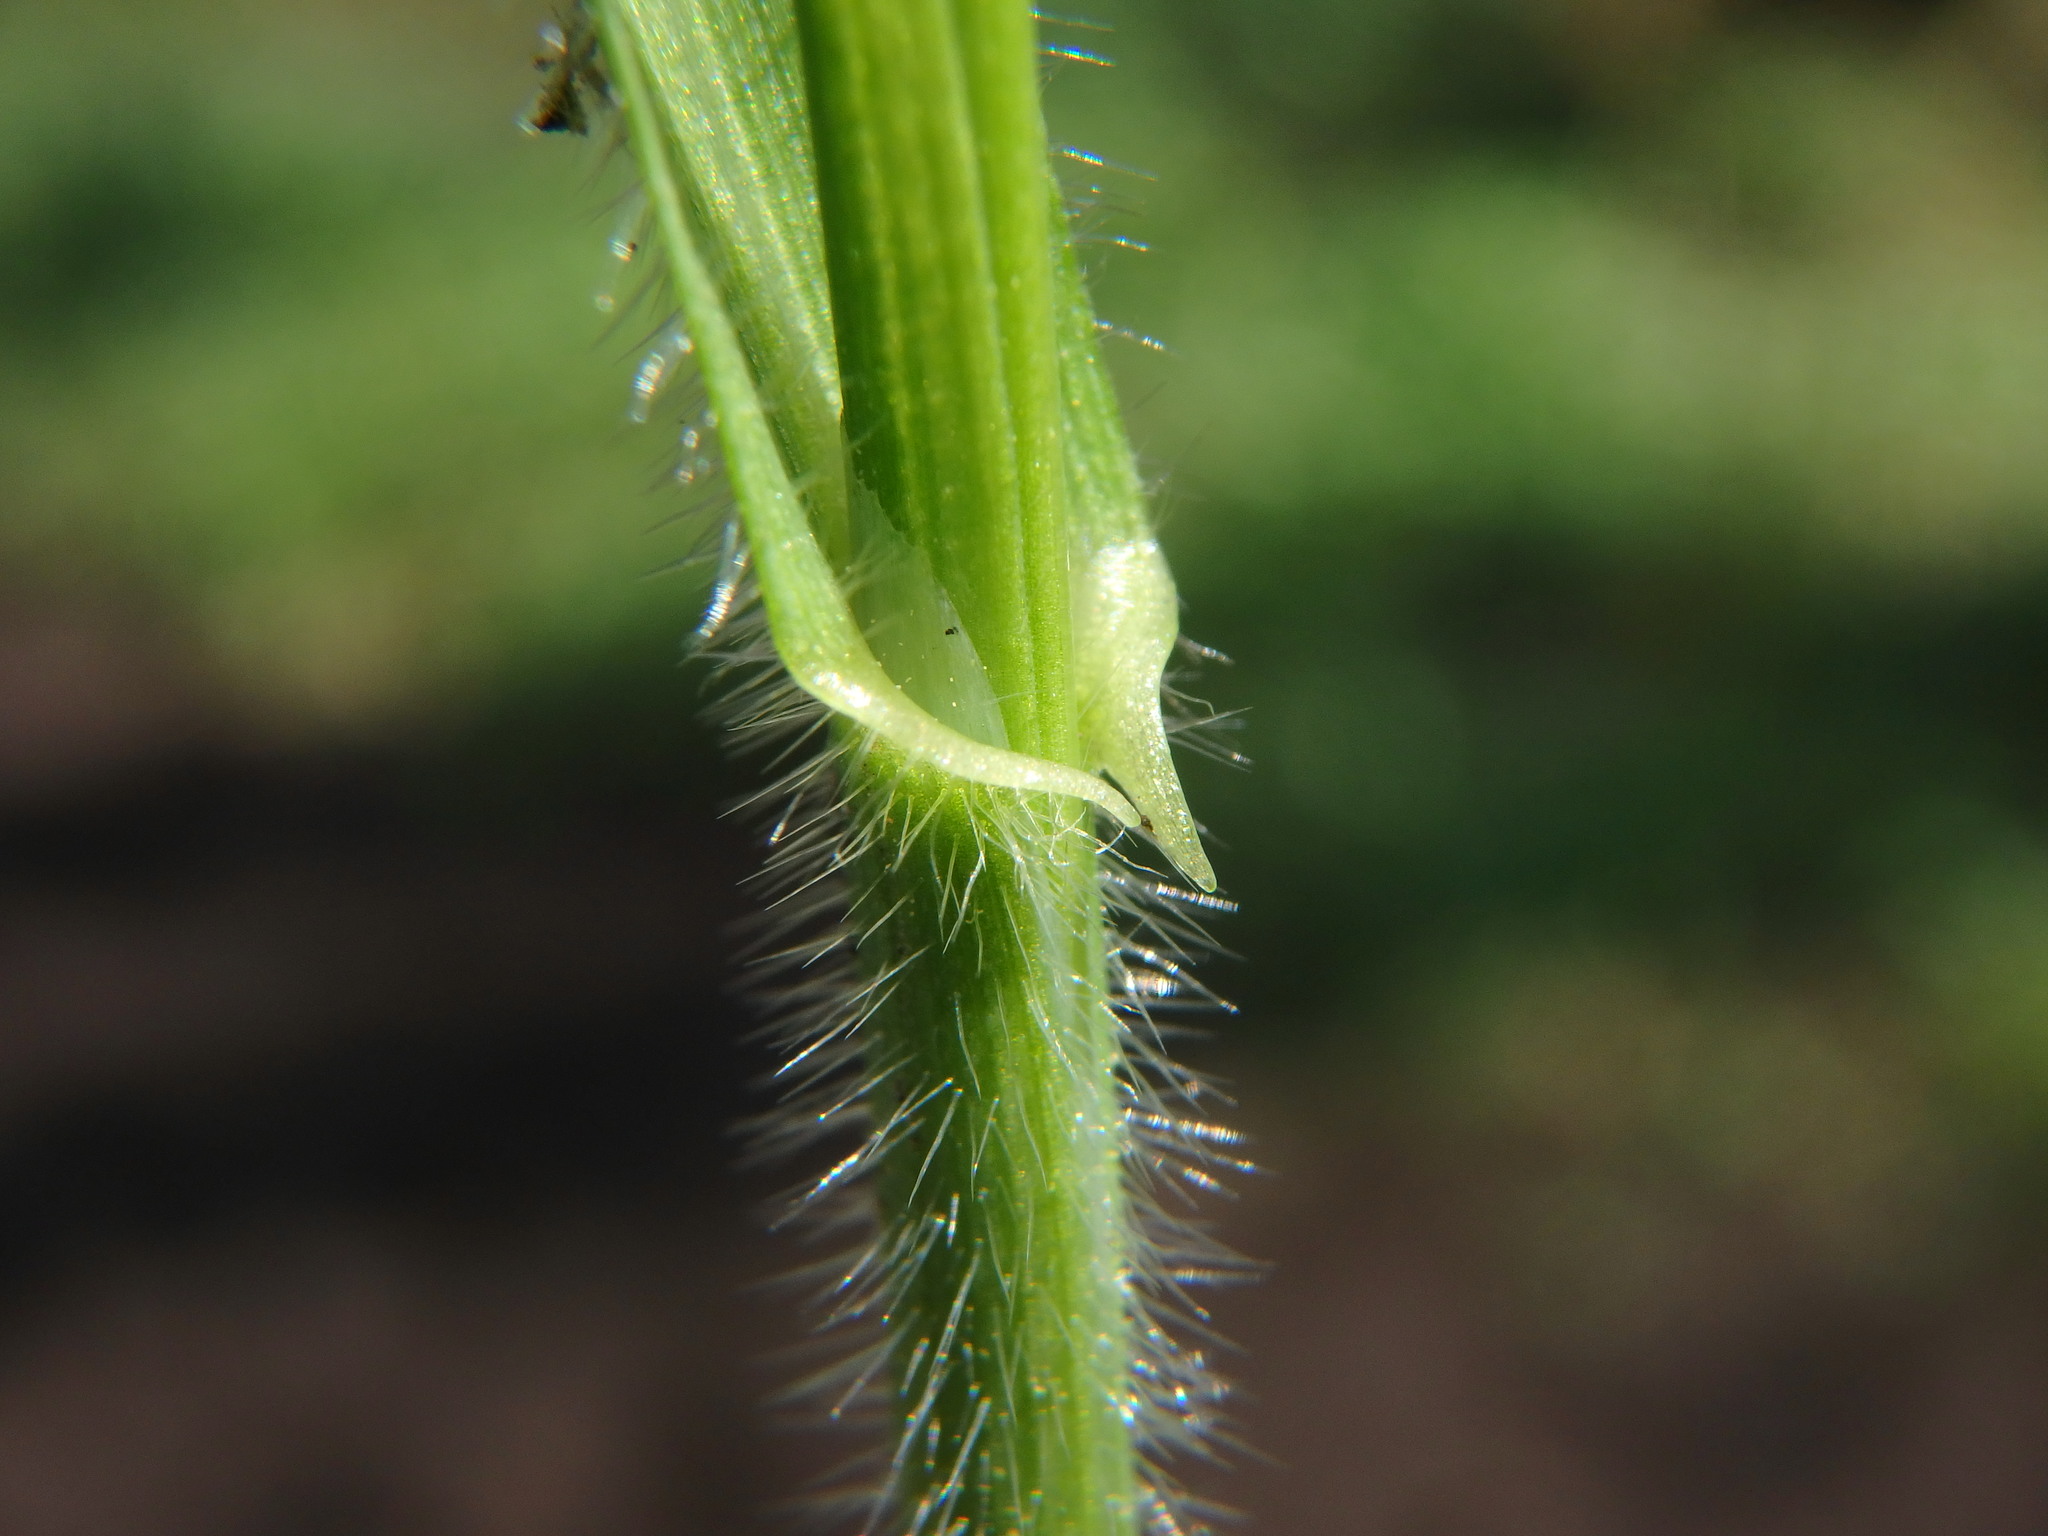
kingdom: Plantae
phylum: Tracheophyta
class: Liliopsida
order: Poales
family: Poaceae
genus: Bromus
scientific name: Bromus ramosus
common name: Hairy brome
